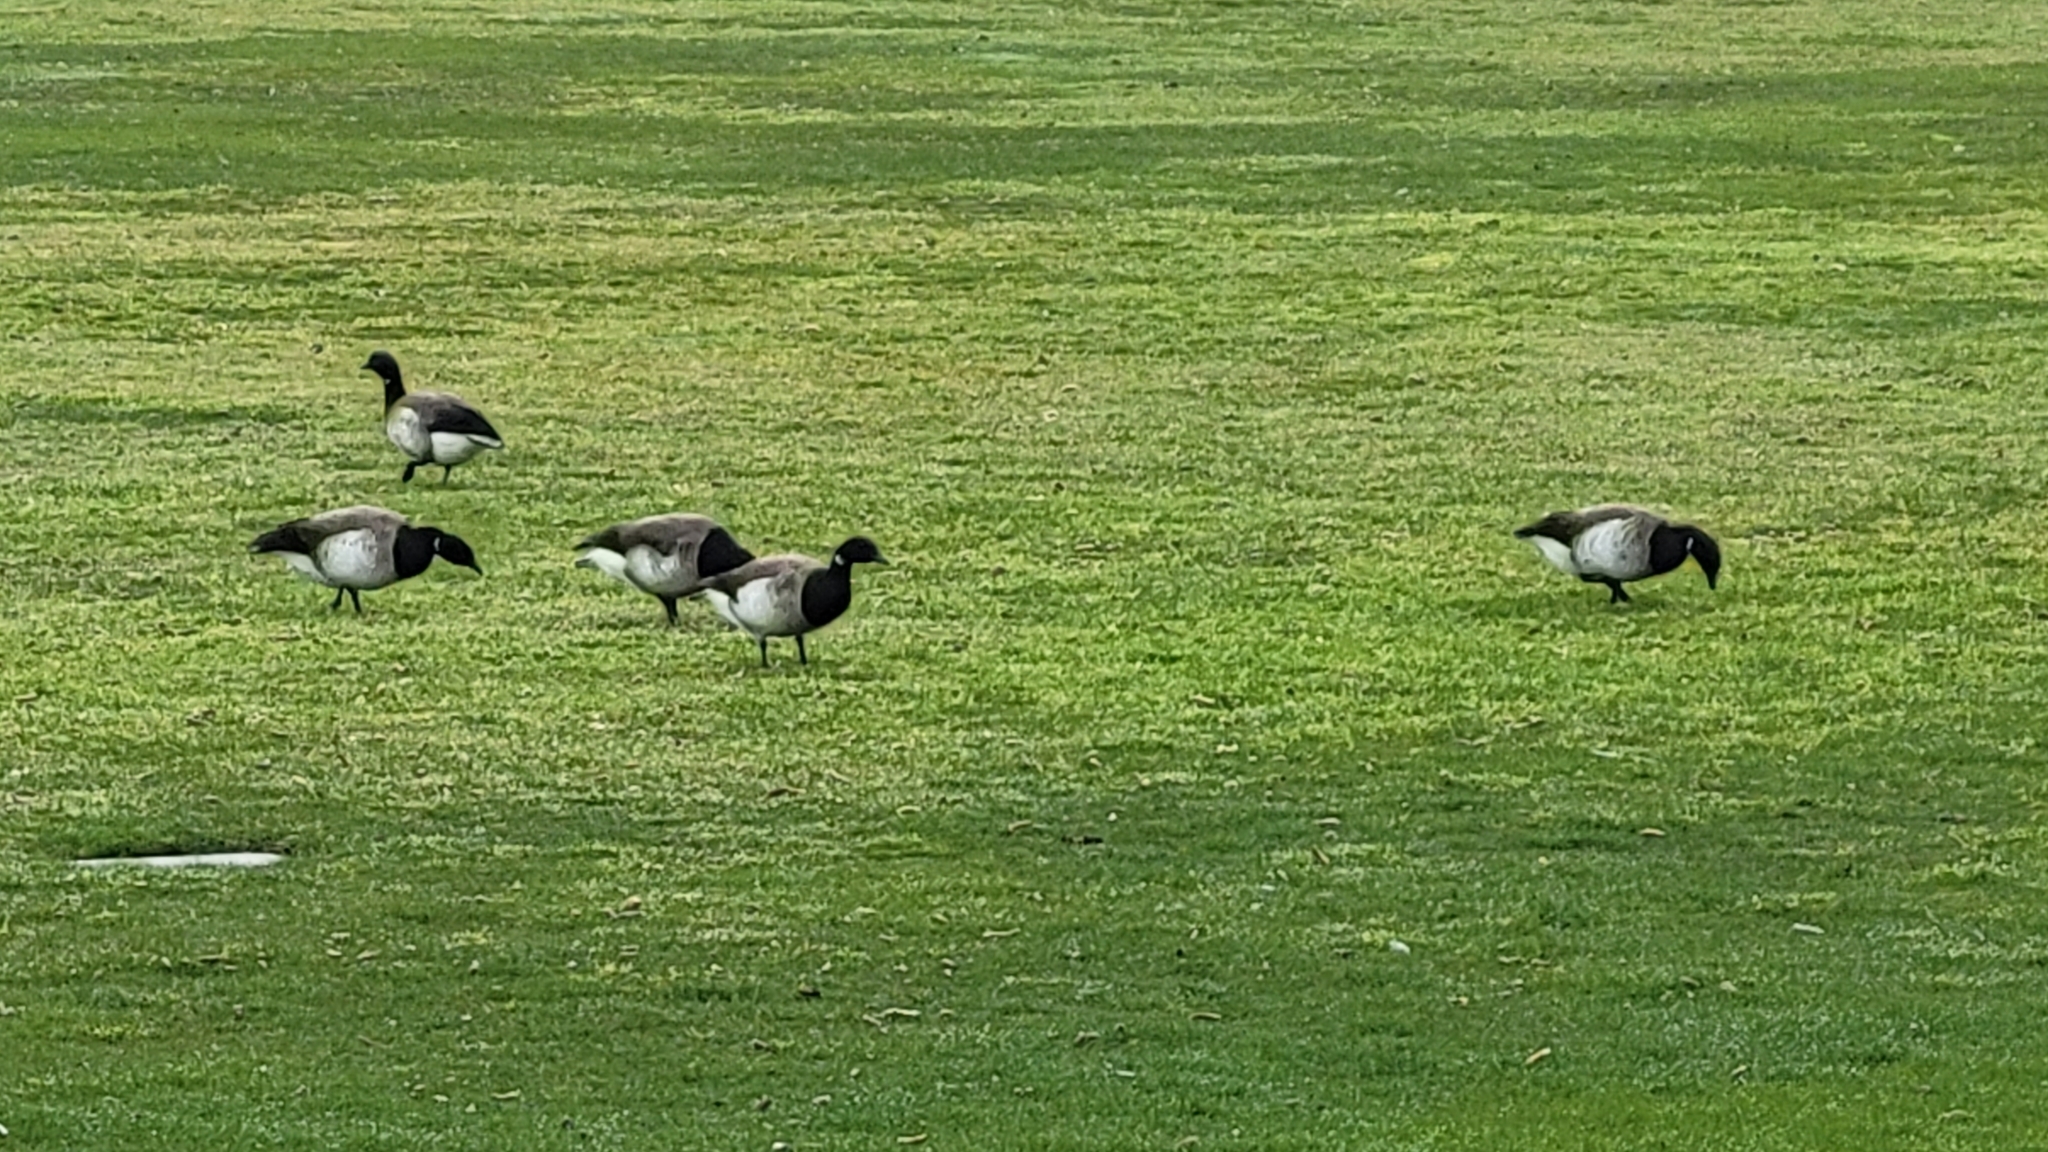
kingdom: Animalia
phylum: Chordata
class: Aves
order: Anseriformes
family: Anatidae
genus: Branta
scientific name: Branta bernicla
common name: Brant goose
